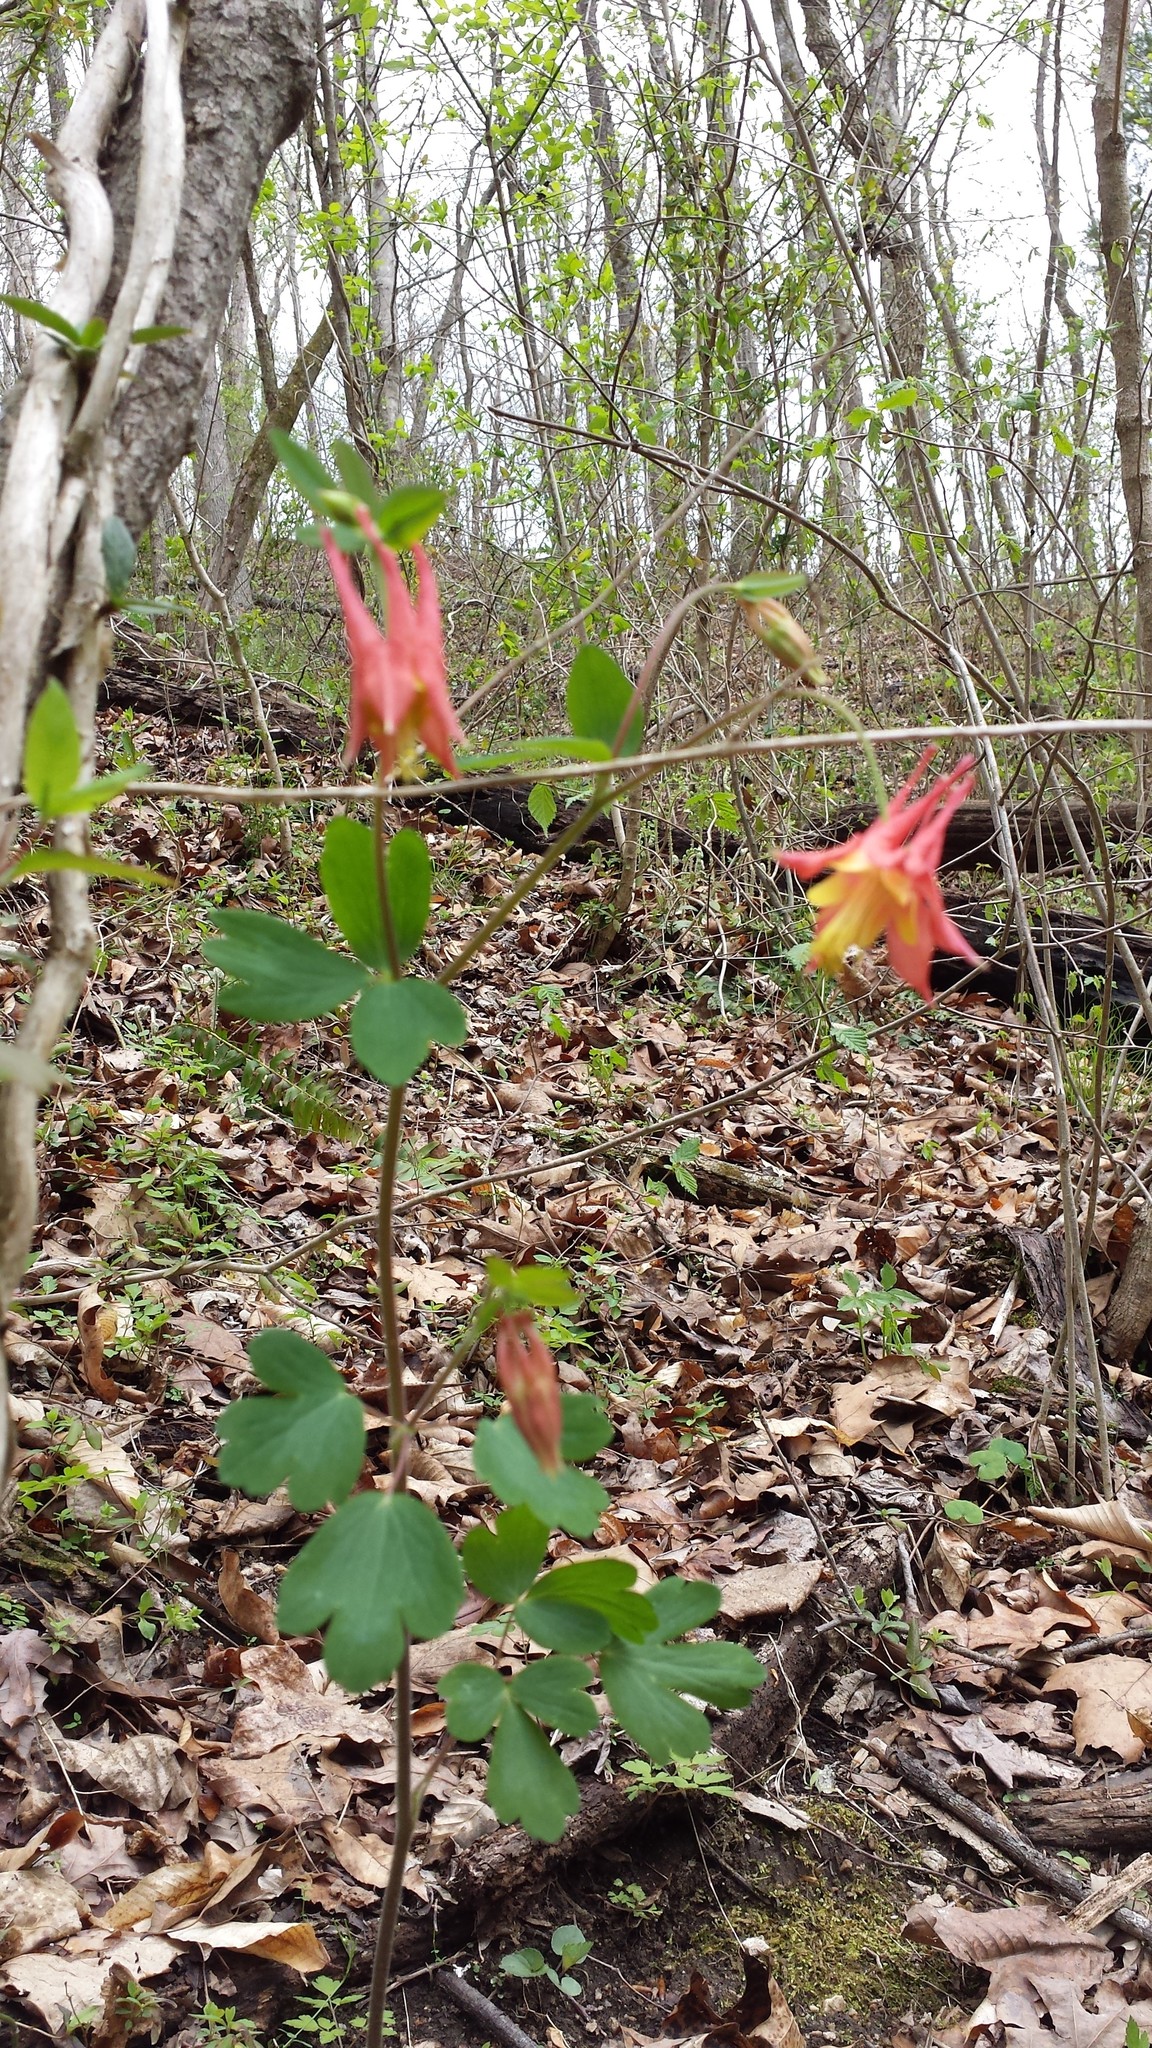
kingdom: Plantae
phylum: Tracheophyta
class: Magnoliopsida
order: Ranunculales
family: Ranunculaceae
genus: Aquilegia
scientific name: Aquilegia canadensis
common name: American columbine
